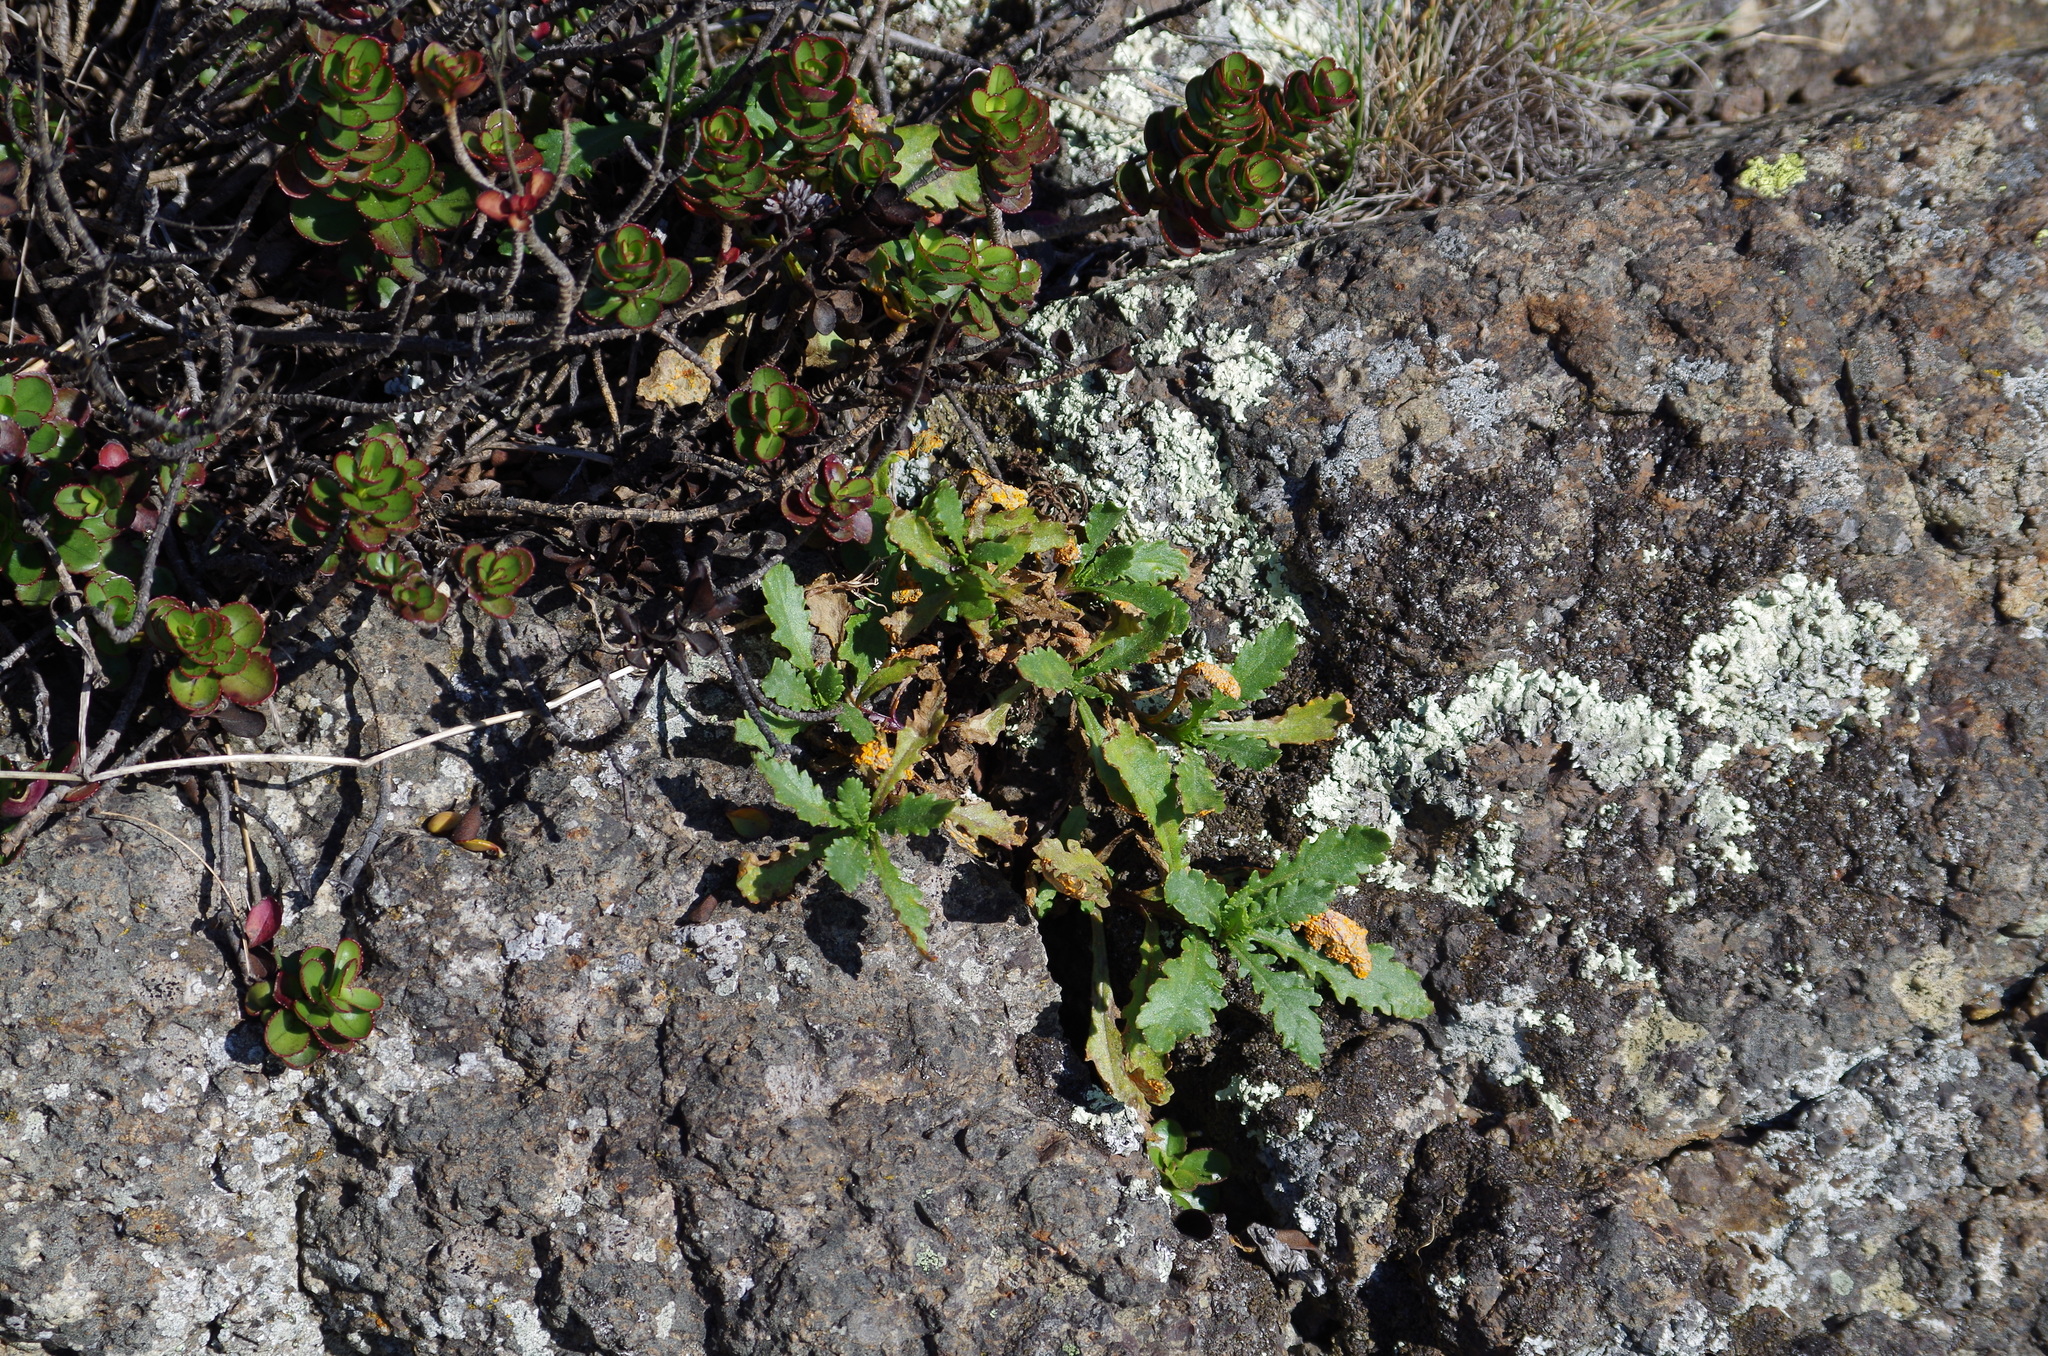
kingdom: Plantae
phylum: Tracheophyta
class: Magnoliopsida
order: Asterales
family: Asteraceae
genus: Senecio
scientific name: Senecio matatini
